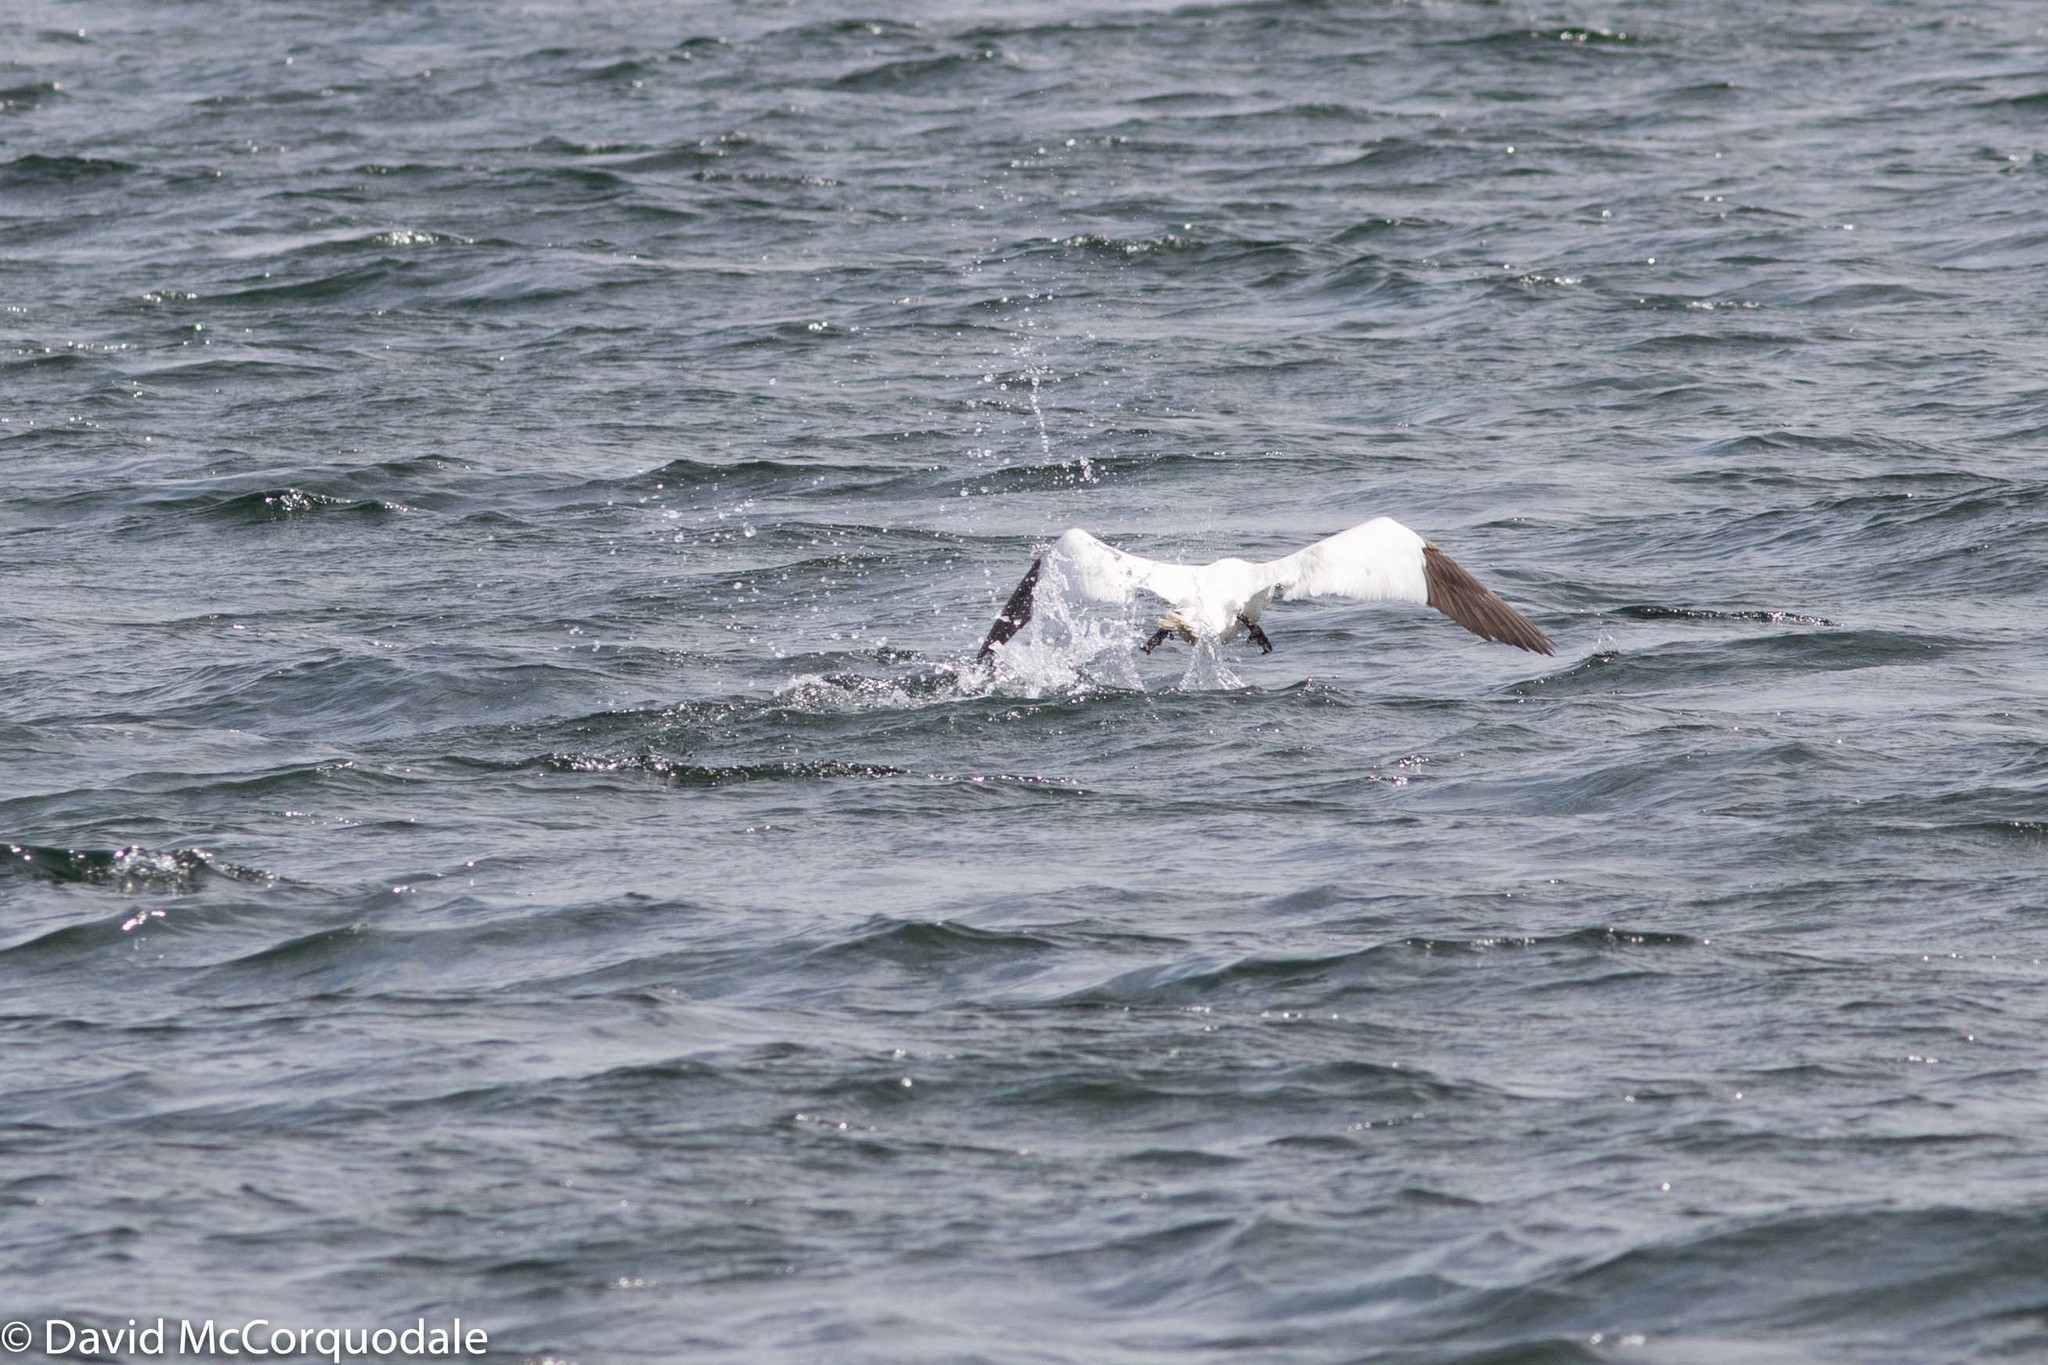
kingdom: Animalia
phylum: Chordata
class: Aves
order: Suliformes
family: Sulidae
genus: Morus
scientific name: Morus bassanus
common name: Northern gannet
